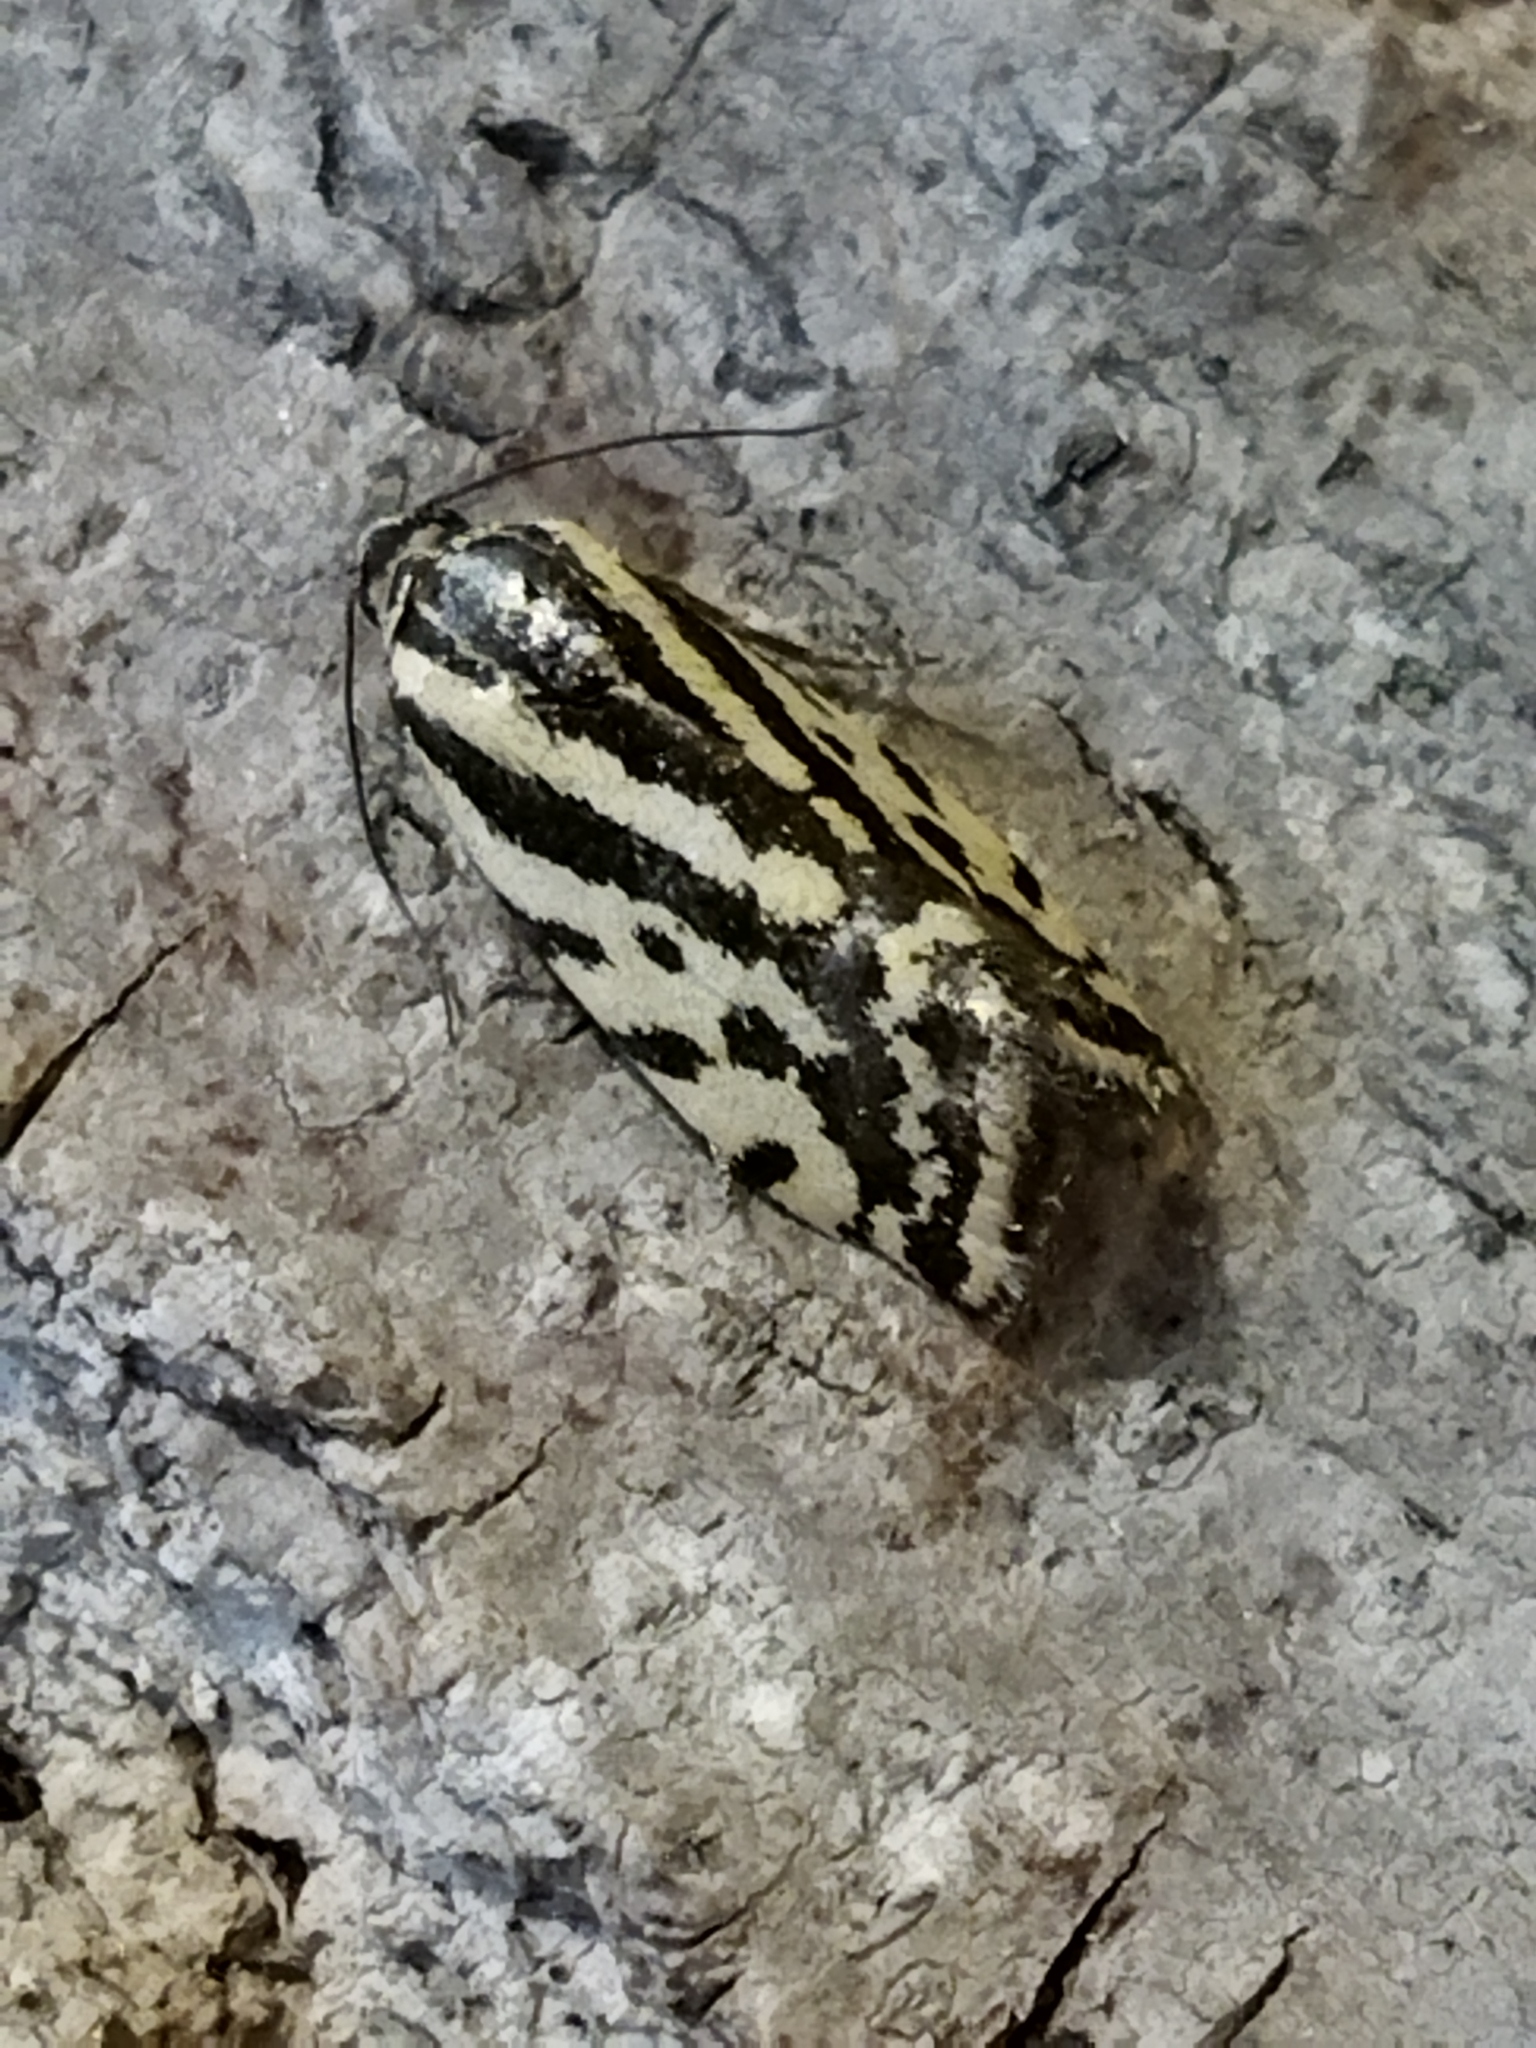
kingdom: Animalia
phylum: Arthropoda
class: Insecta
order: Lepidoptera
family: Noctuidae
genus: Acontia
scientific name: Acontia trabealis
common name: Spotted sulphur
